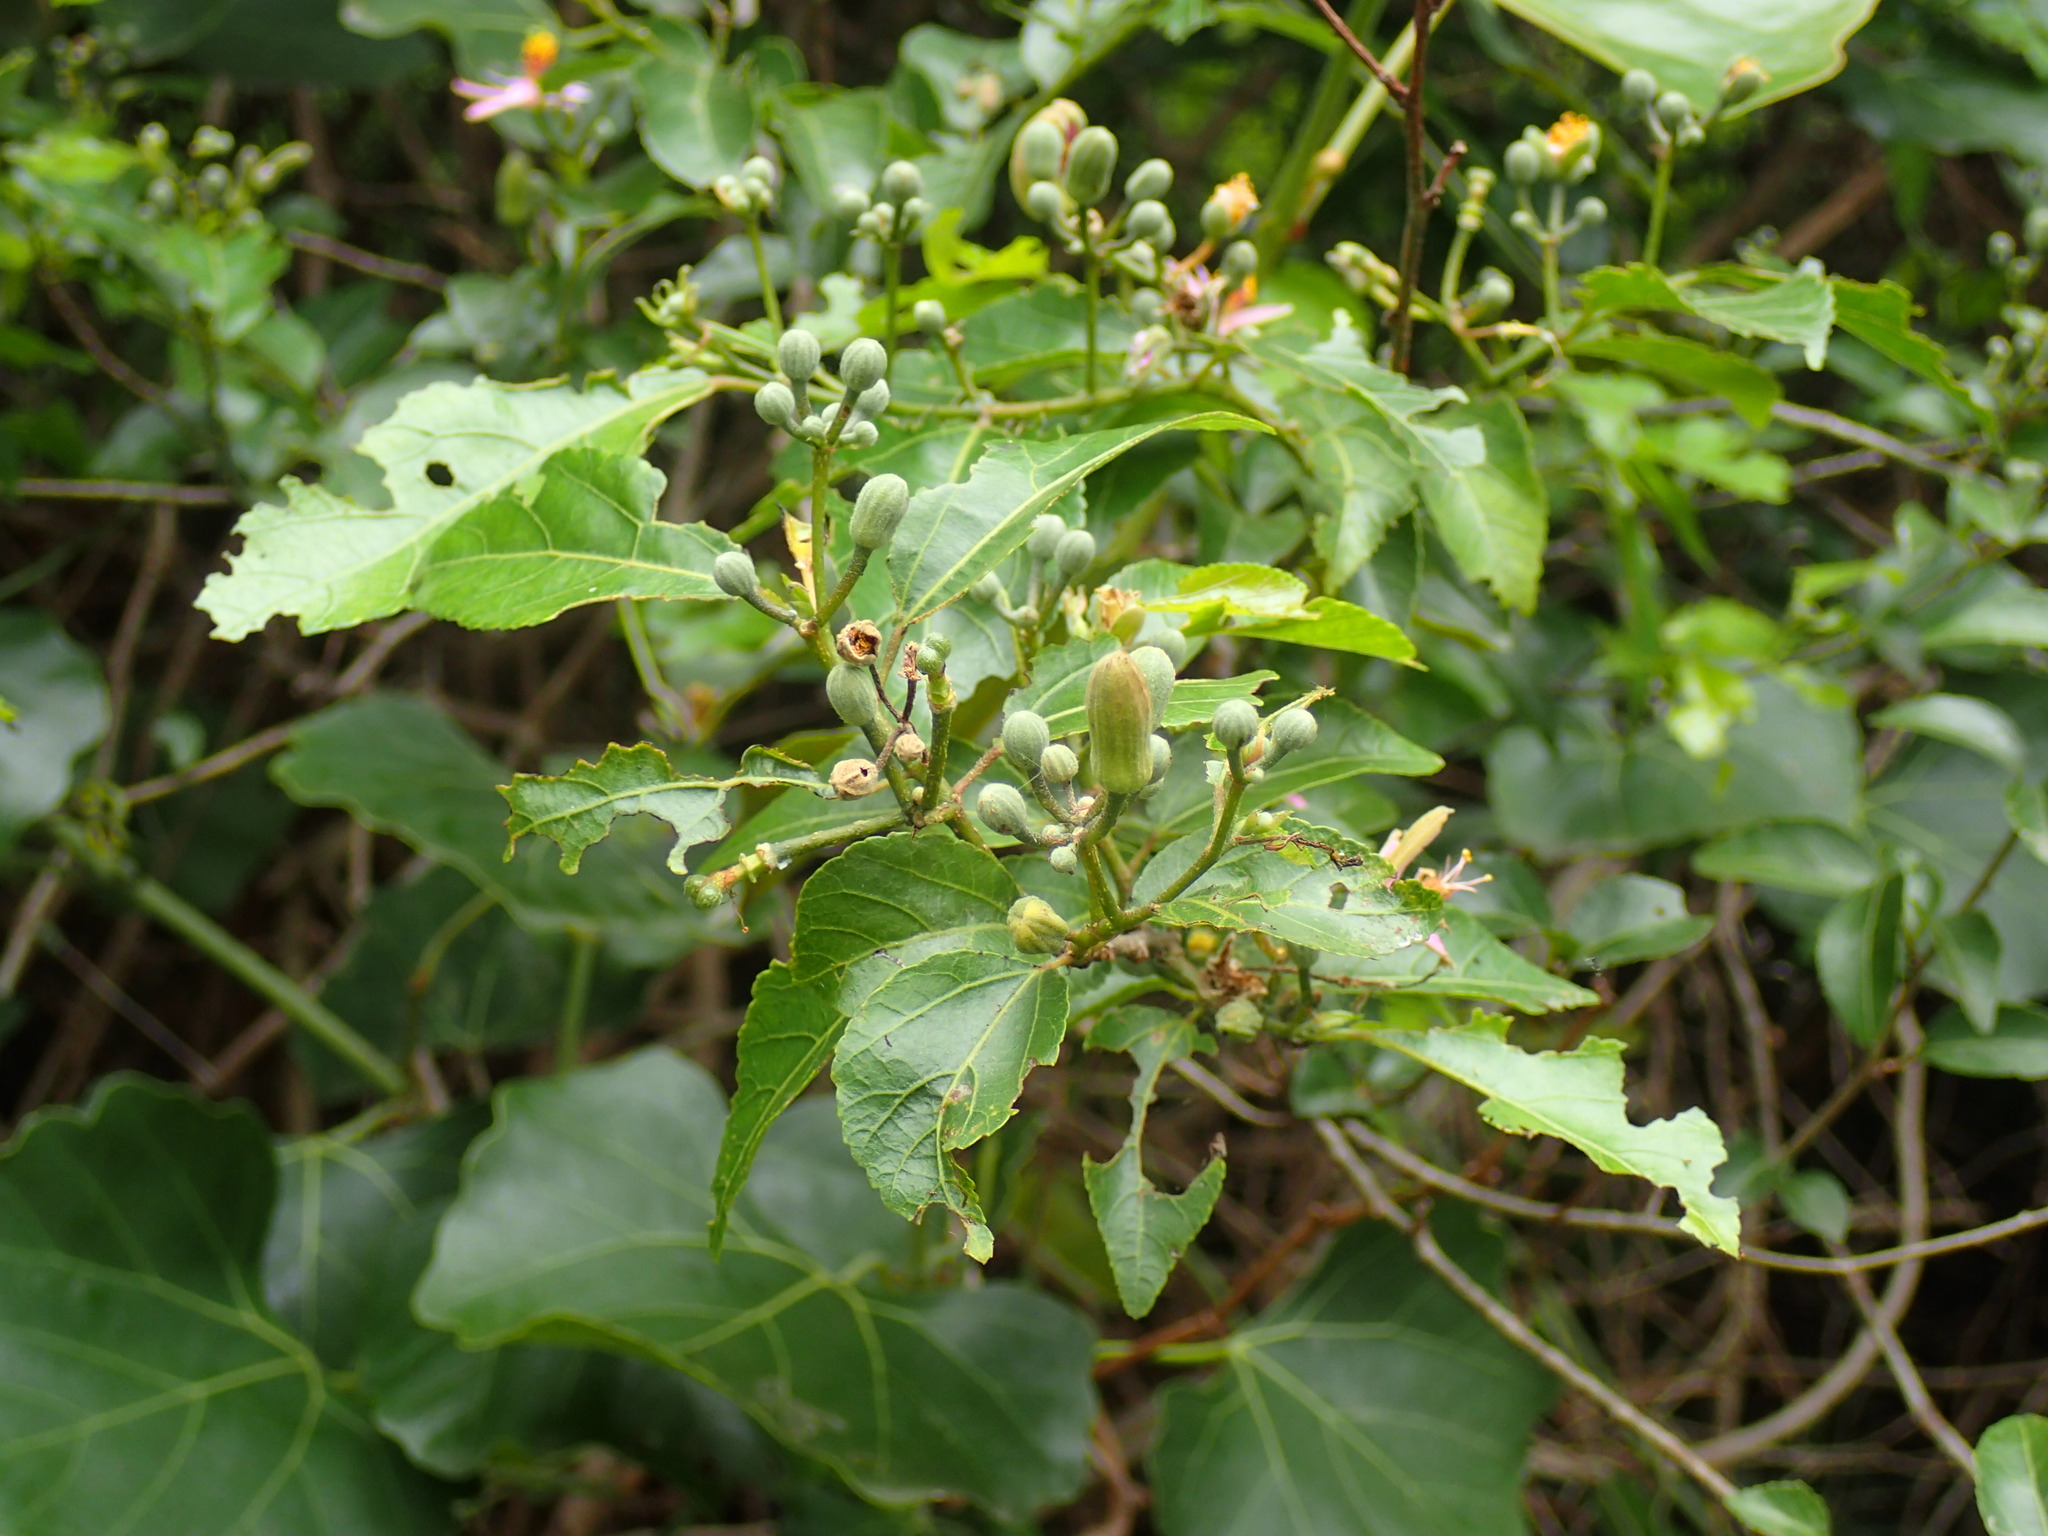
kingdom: Plantae
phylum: Tracheophyta
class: Magnoliopsida
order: Malvales
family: Malvaceae
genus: Grewia
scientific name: Grewia occidentalis
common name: Crossberry
